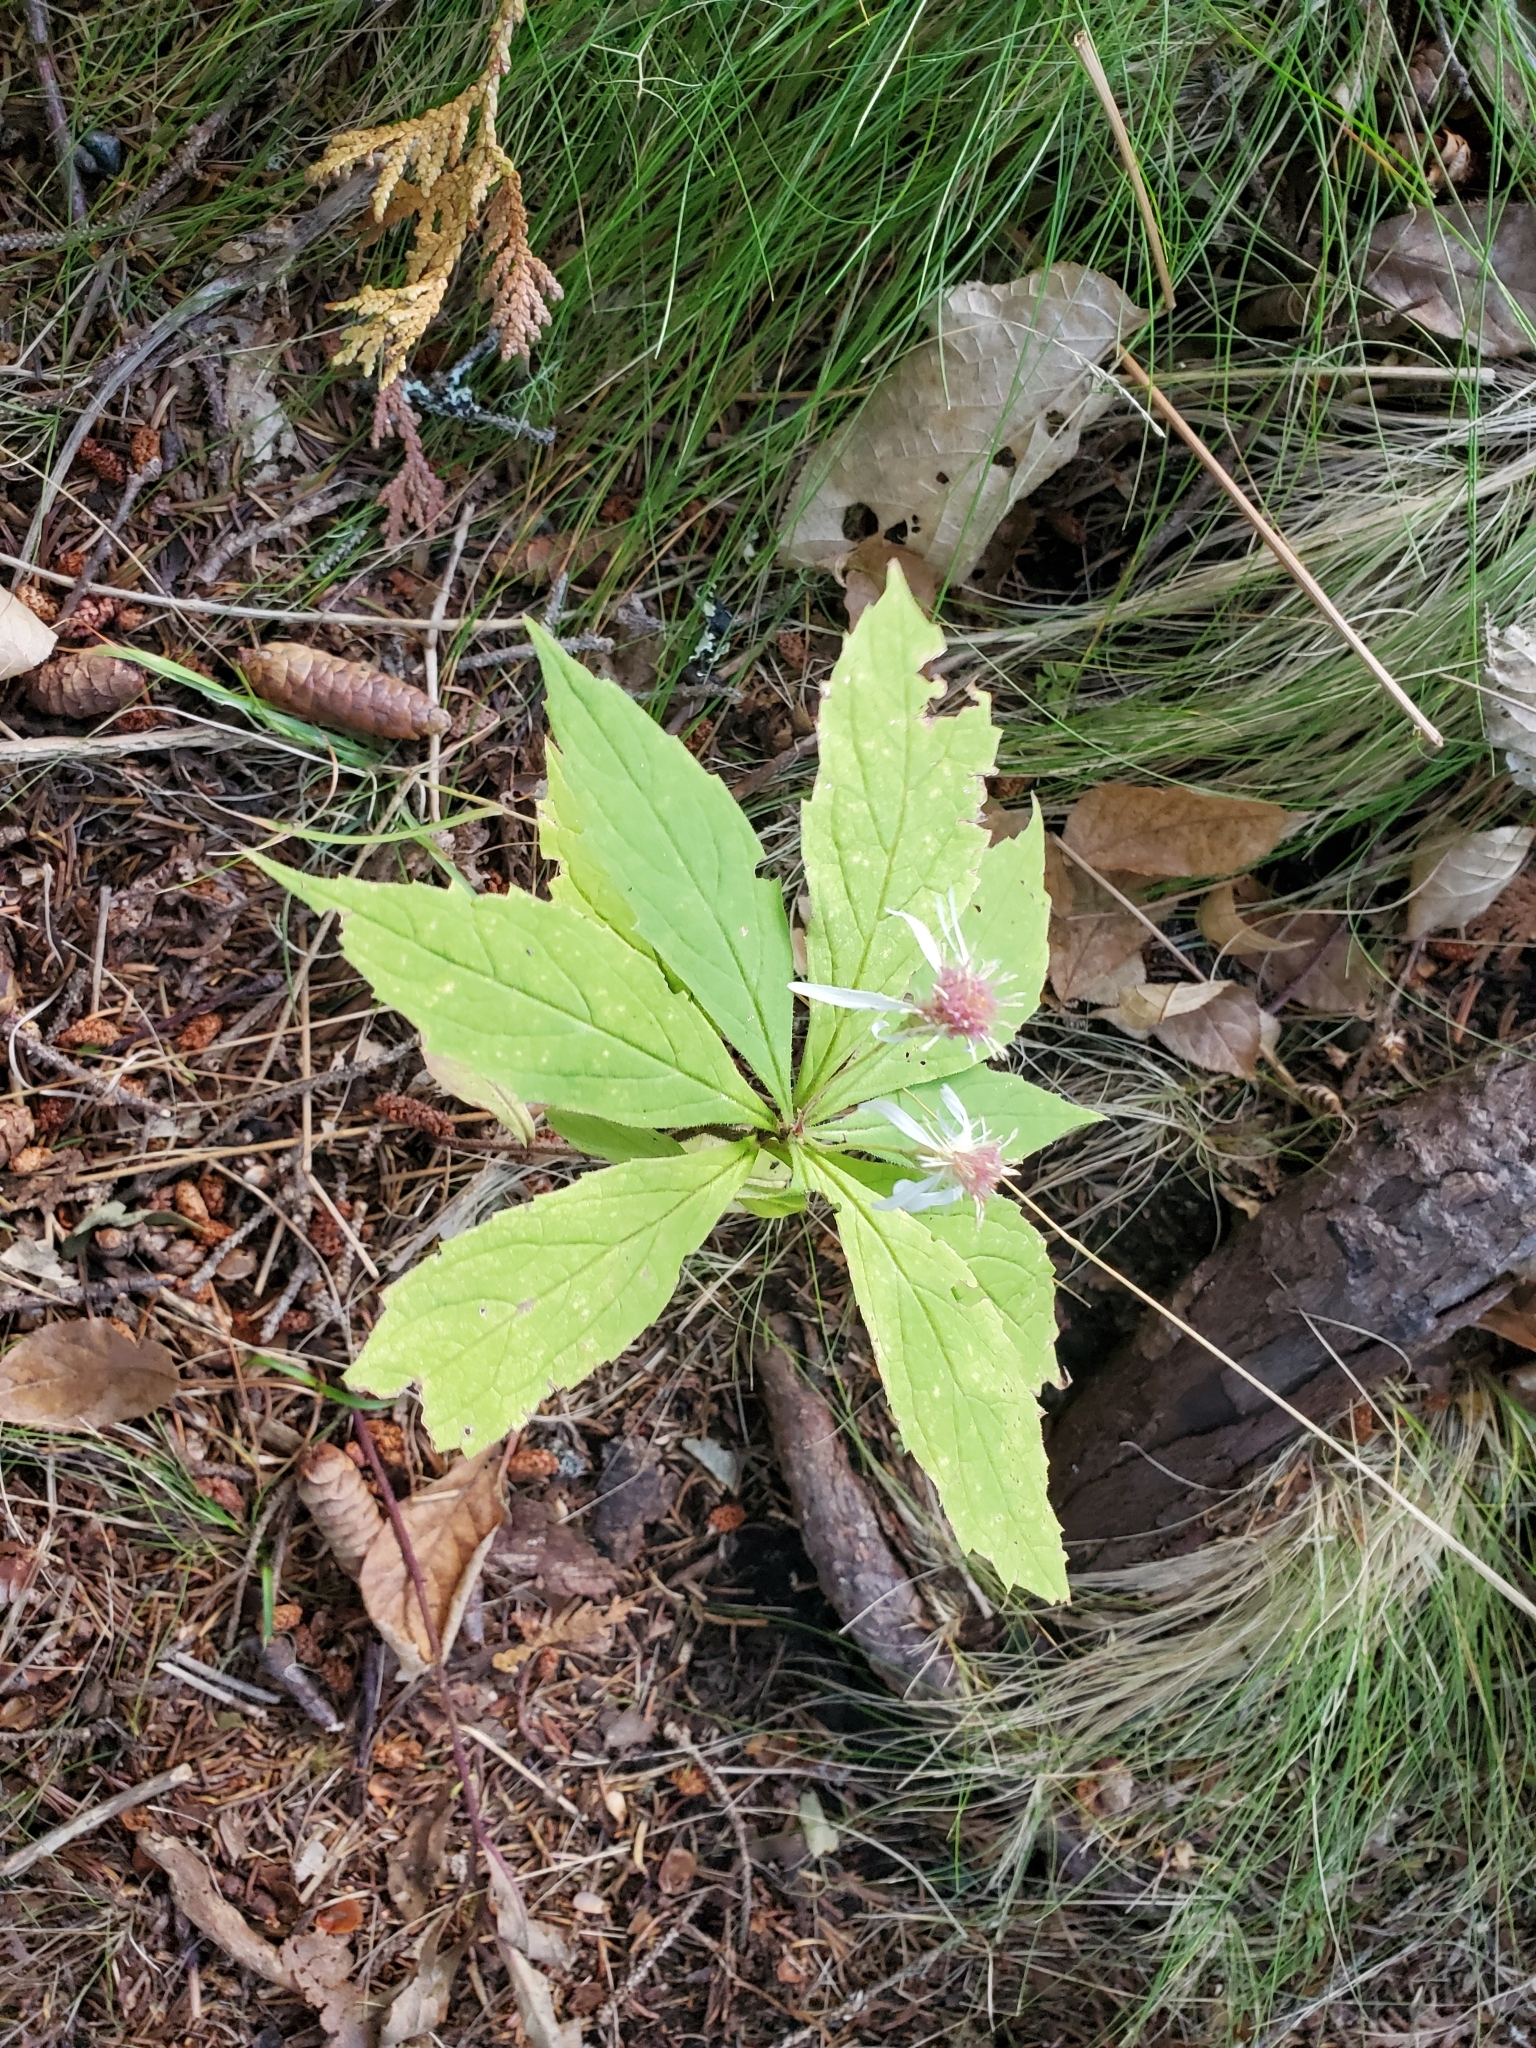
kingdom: Plantae
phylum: Tracheophyta
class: Magnoliopsida
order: Asterales
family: Asteraceae
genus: Oclemena
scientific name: Oclemena acuminata
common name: Mountain aster
